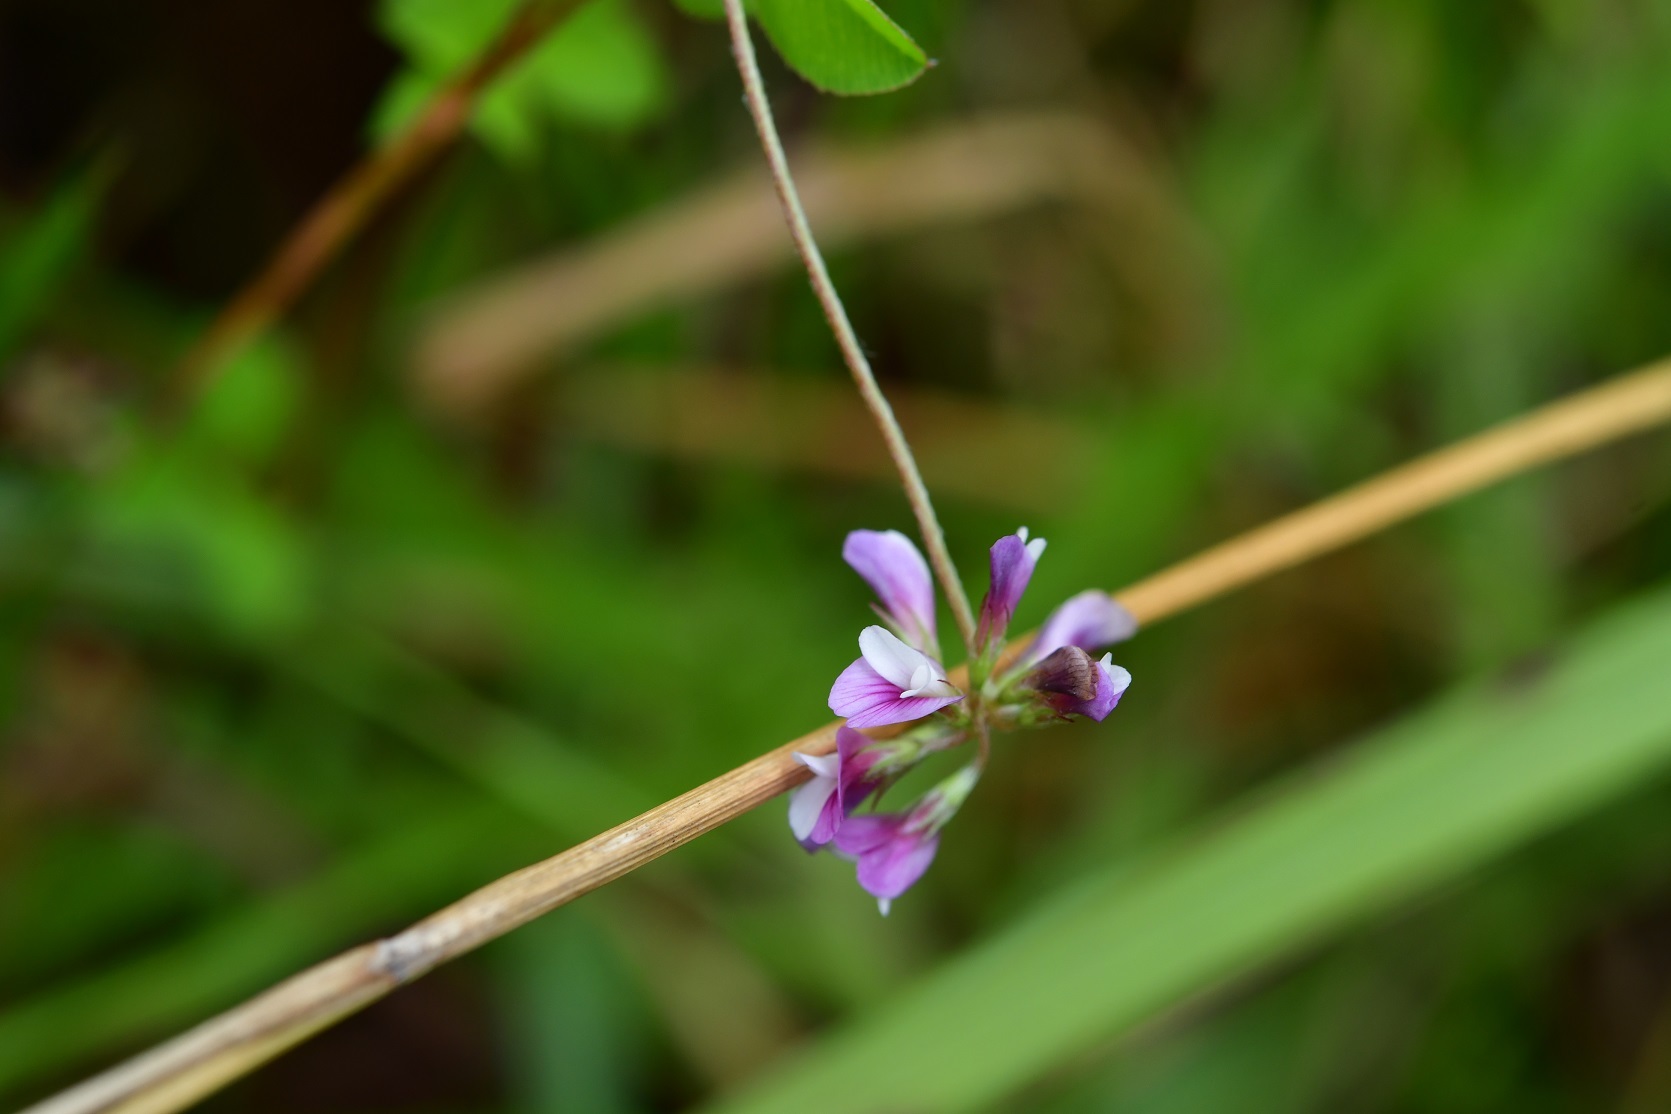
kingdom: Plantae
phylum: Tracheophyta
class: Magnoliopsida
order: Fabales
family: Fabaceae
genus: Trifolium
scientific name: Trifolium amabile
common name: Aztec clover
